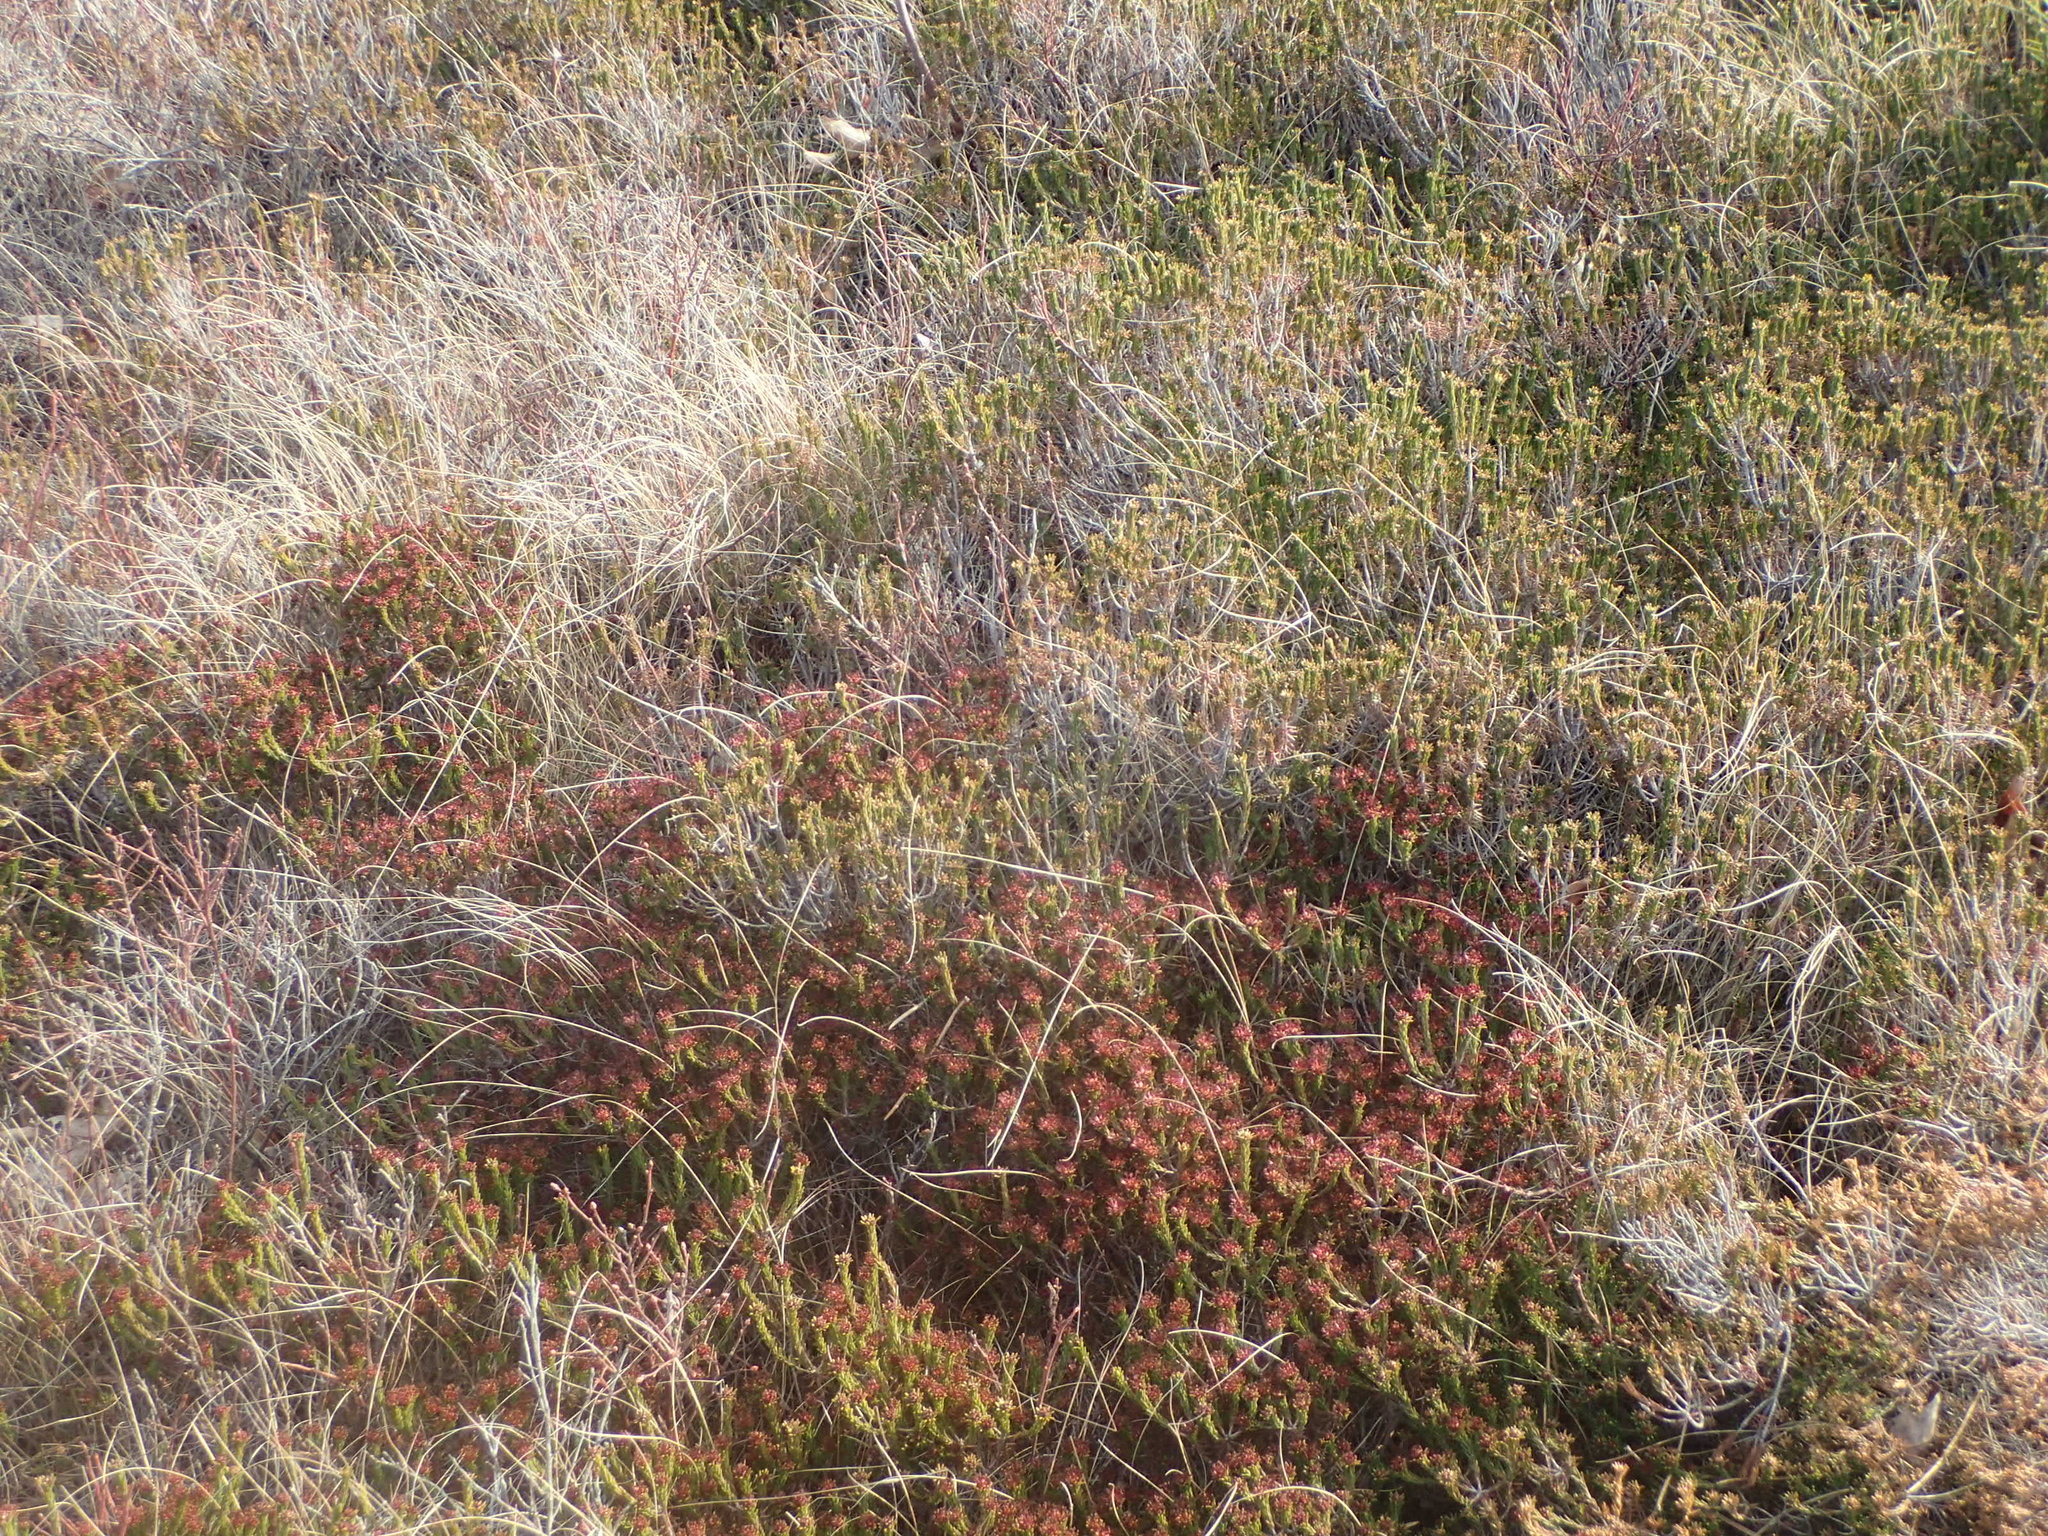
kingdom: Plantae
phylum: Tracheophyta
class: Magnoliopsida
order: Ericales
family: Ericaceae
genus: Corema
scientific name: Corema conradii
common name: Broom-crowberry
